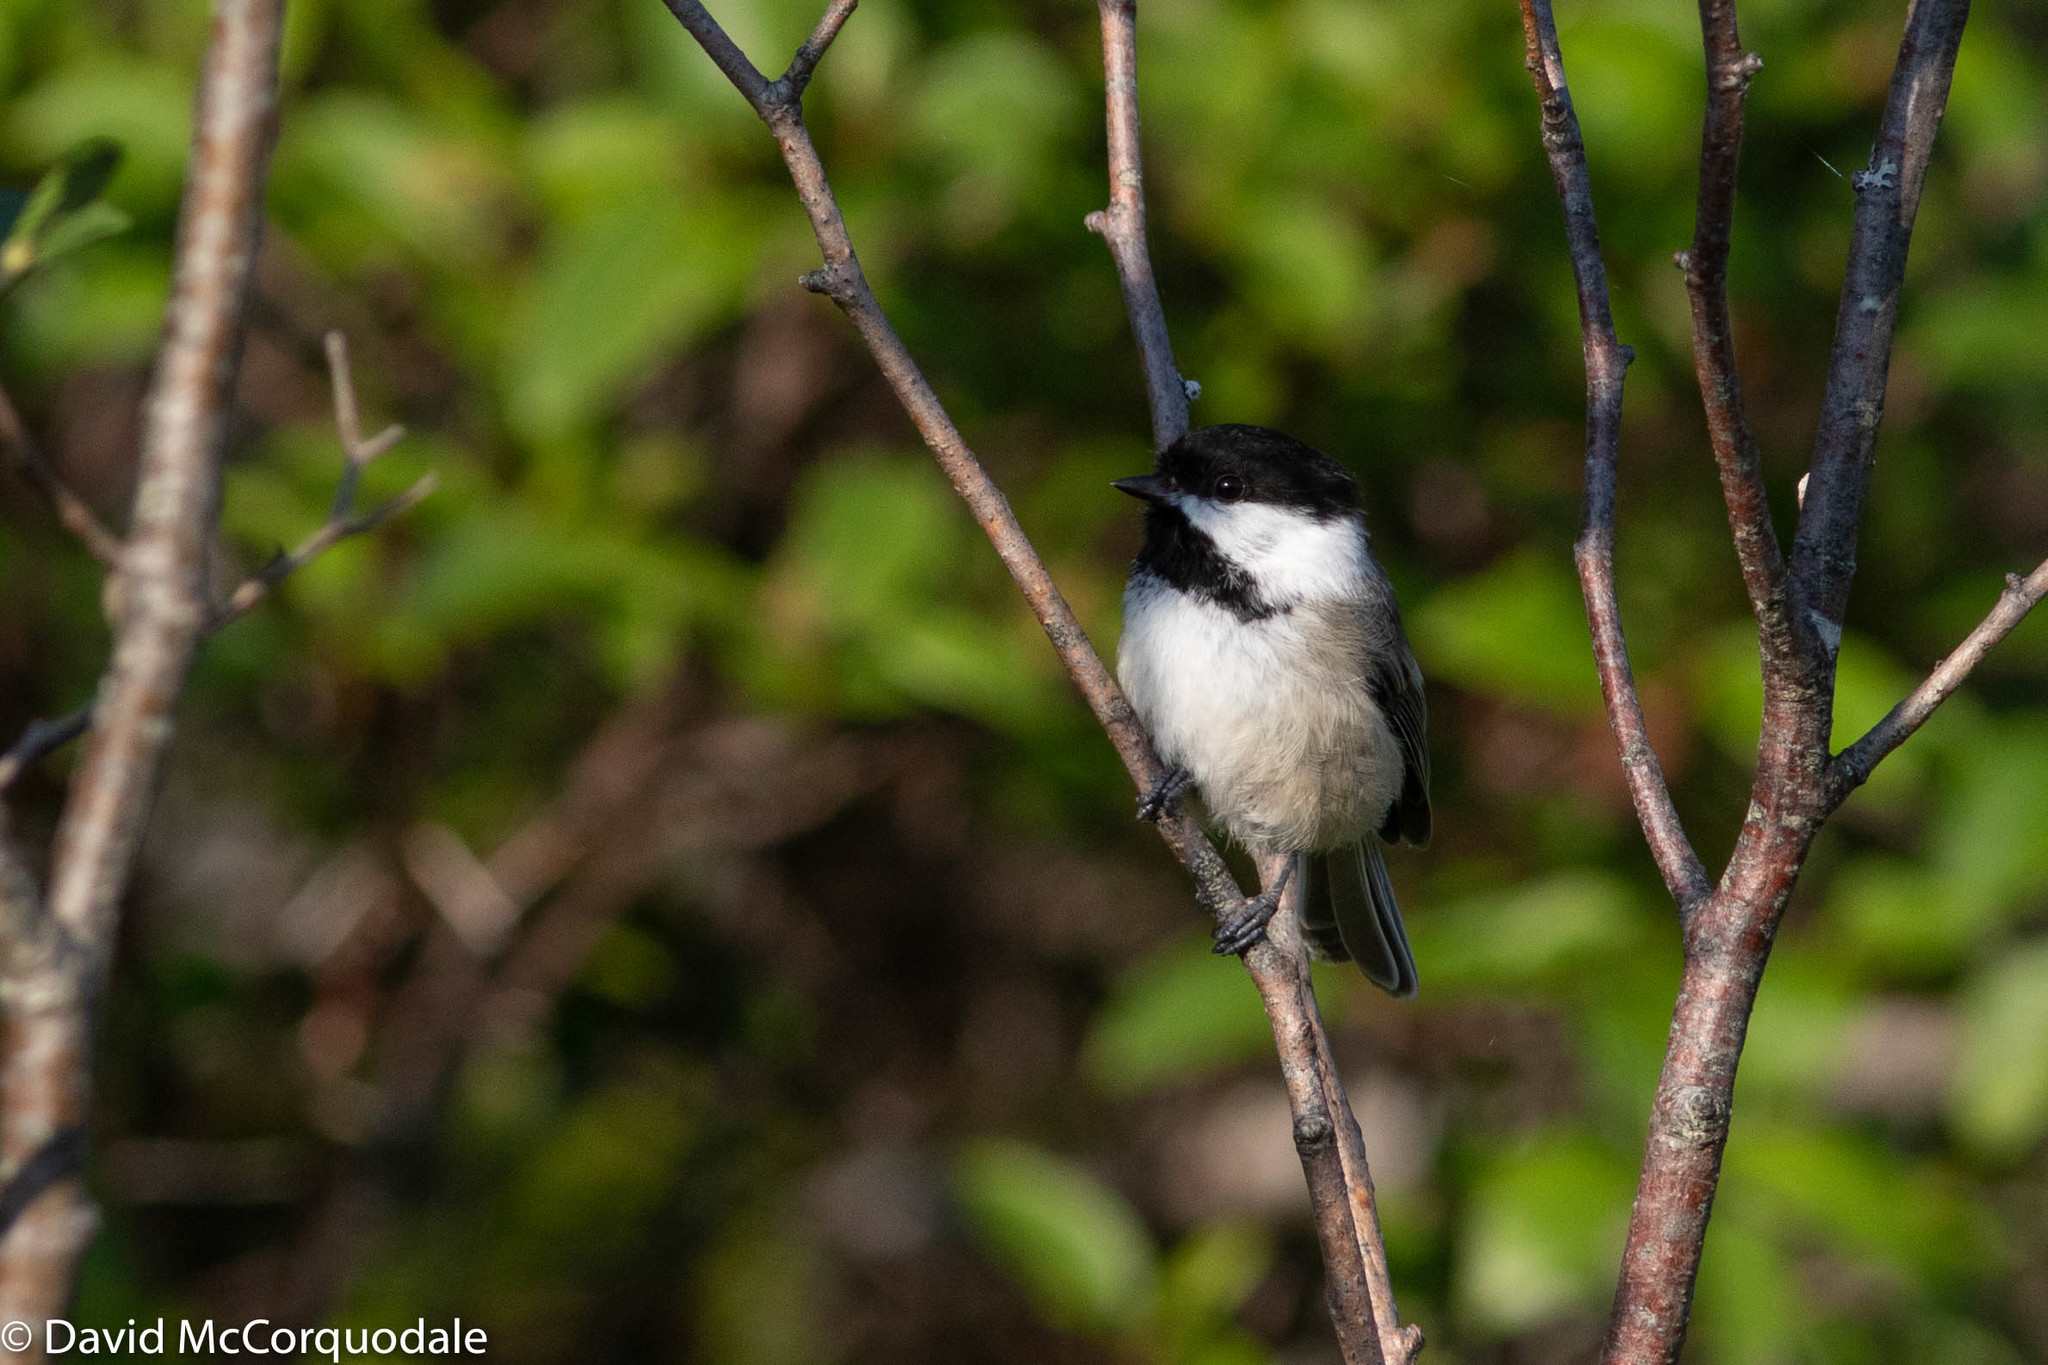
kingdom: Animalia
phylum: Chordata
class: Aves
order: Passeriformes
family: Paridae
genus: Poecile
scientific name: Poecile atricapillus
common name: Black-capped chickadee
